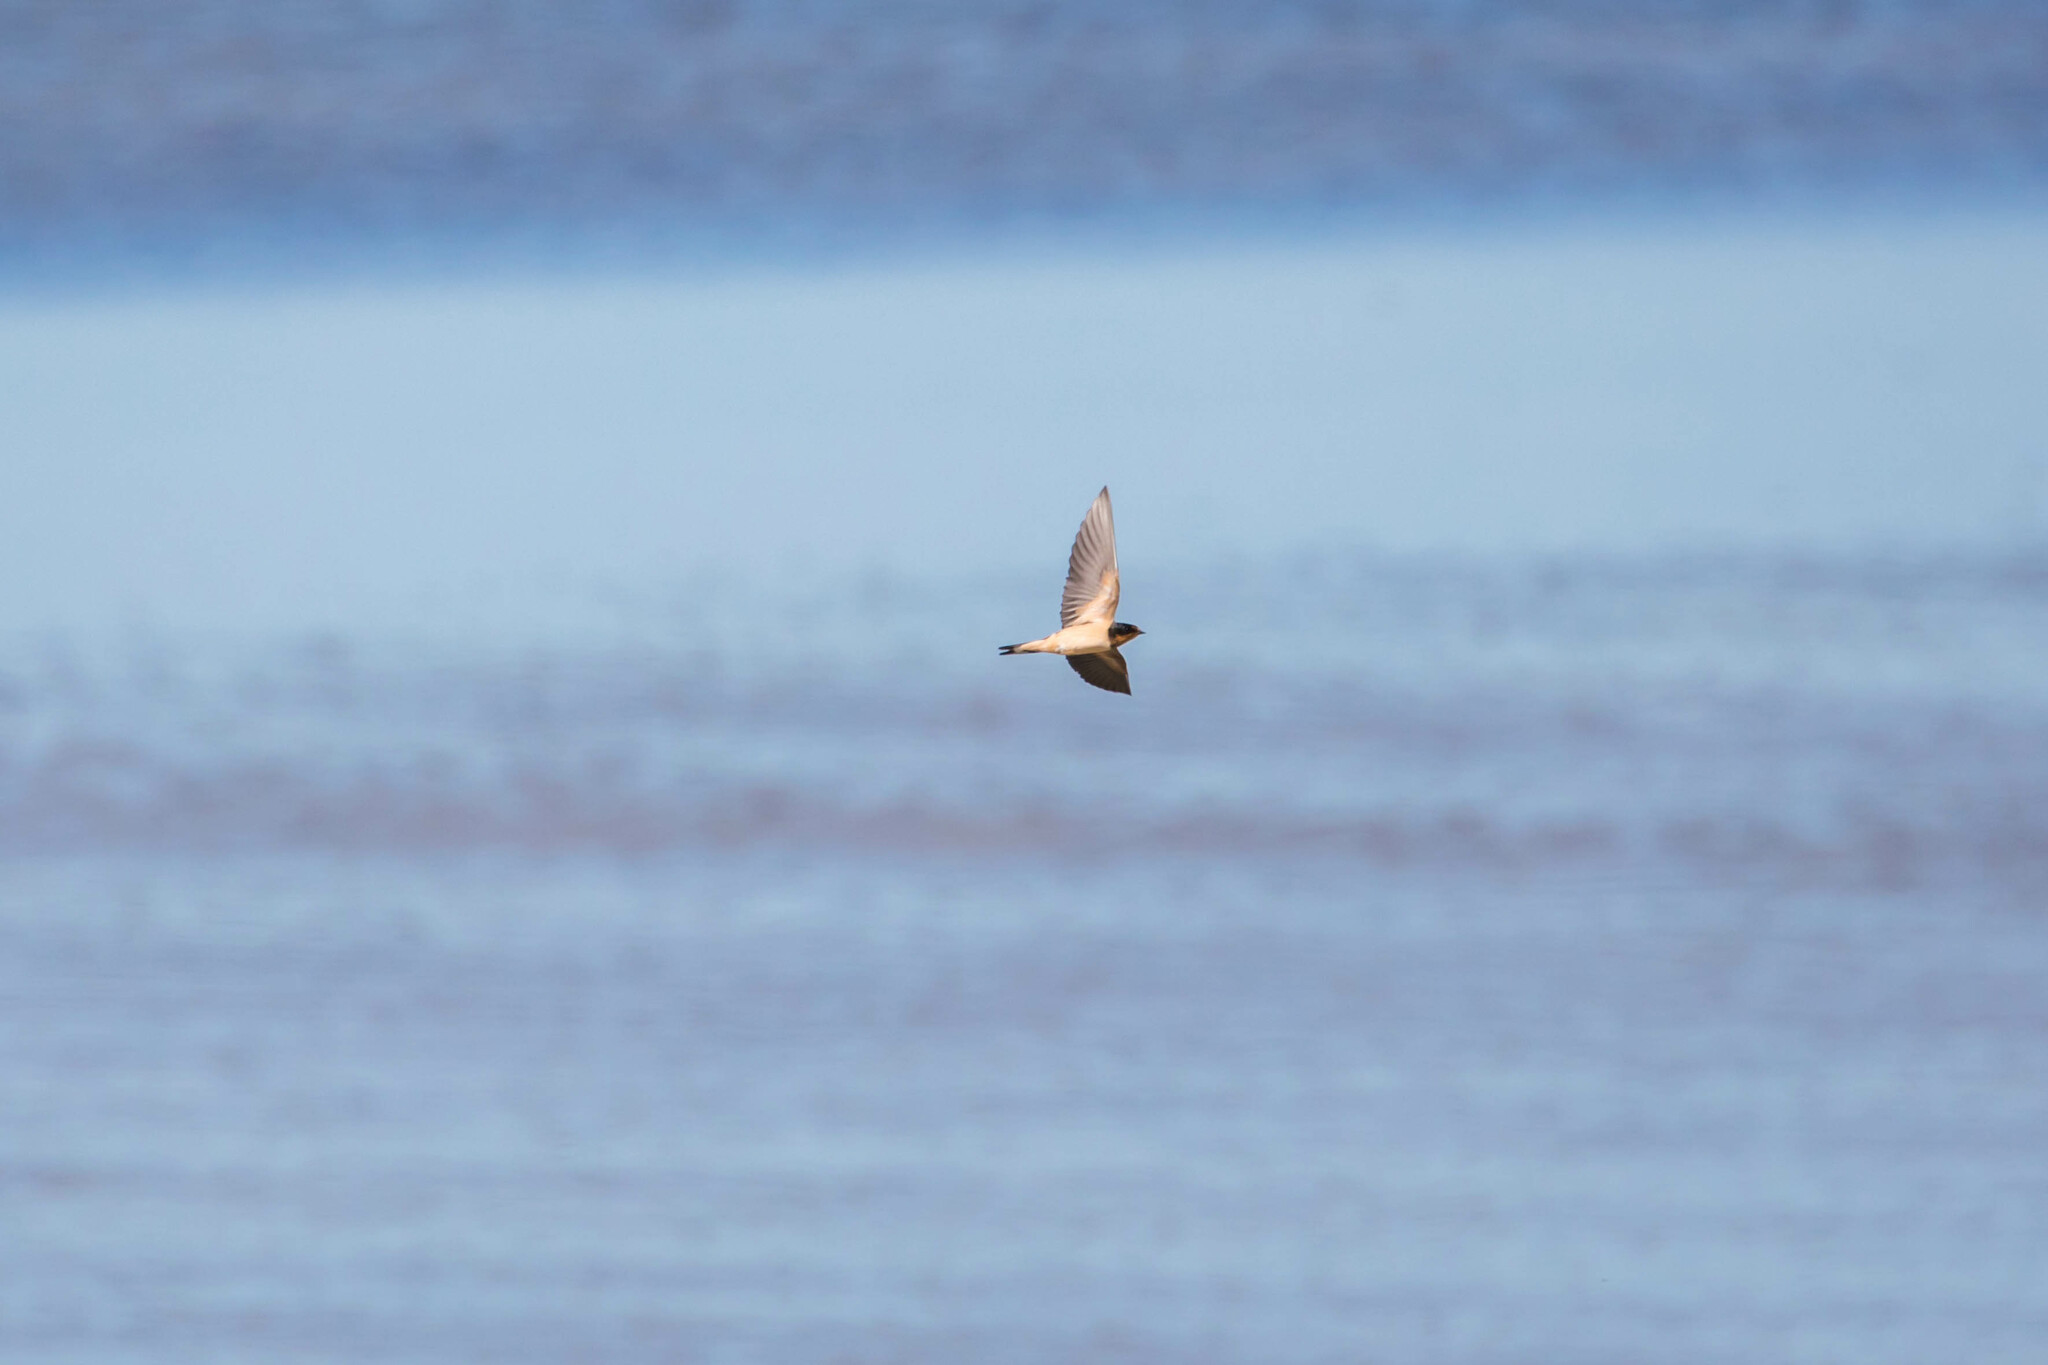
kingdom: Animalia
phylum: Chordata
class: Aves
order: Passeriformes
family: Hirundinidae
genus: Hirundo
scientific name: Hirundo rustica
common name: Barn swallow
